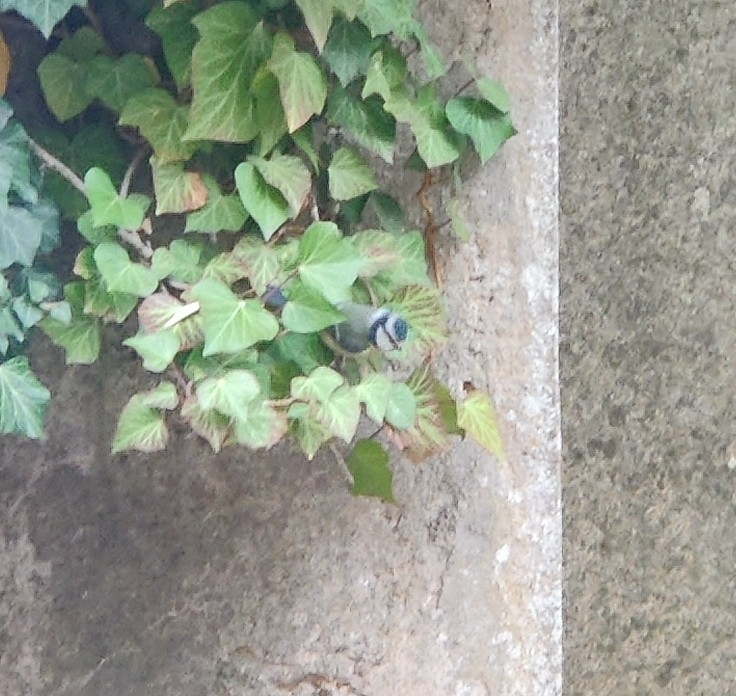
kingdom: Animalia
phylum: Chordata
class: Aves
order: Passeriformes
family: Paridae
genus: Cyanistes
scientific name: Cyanistes caeruleus
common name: Eurasian blue tit
